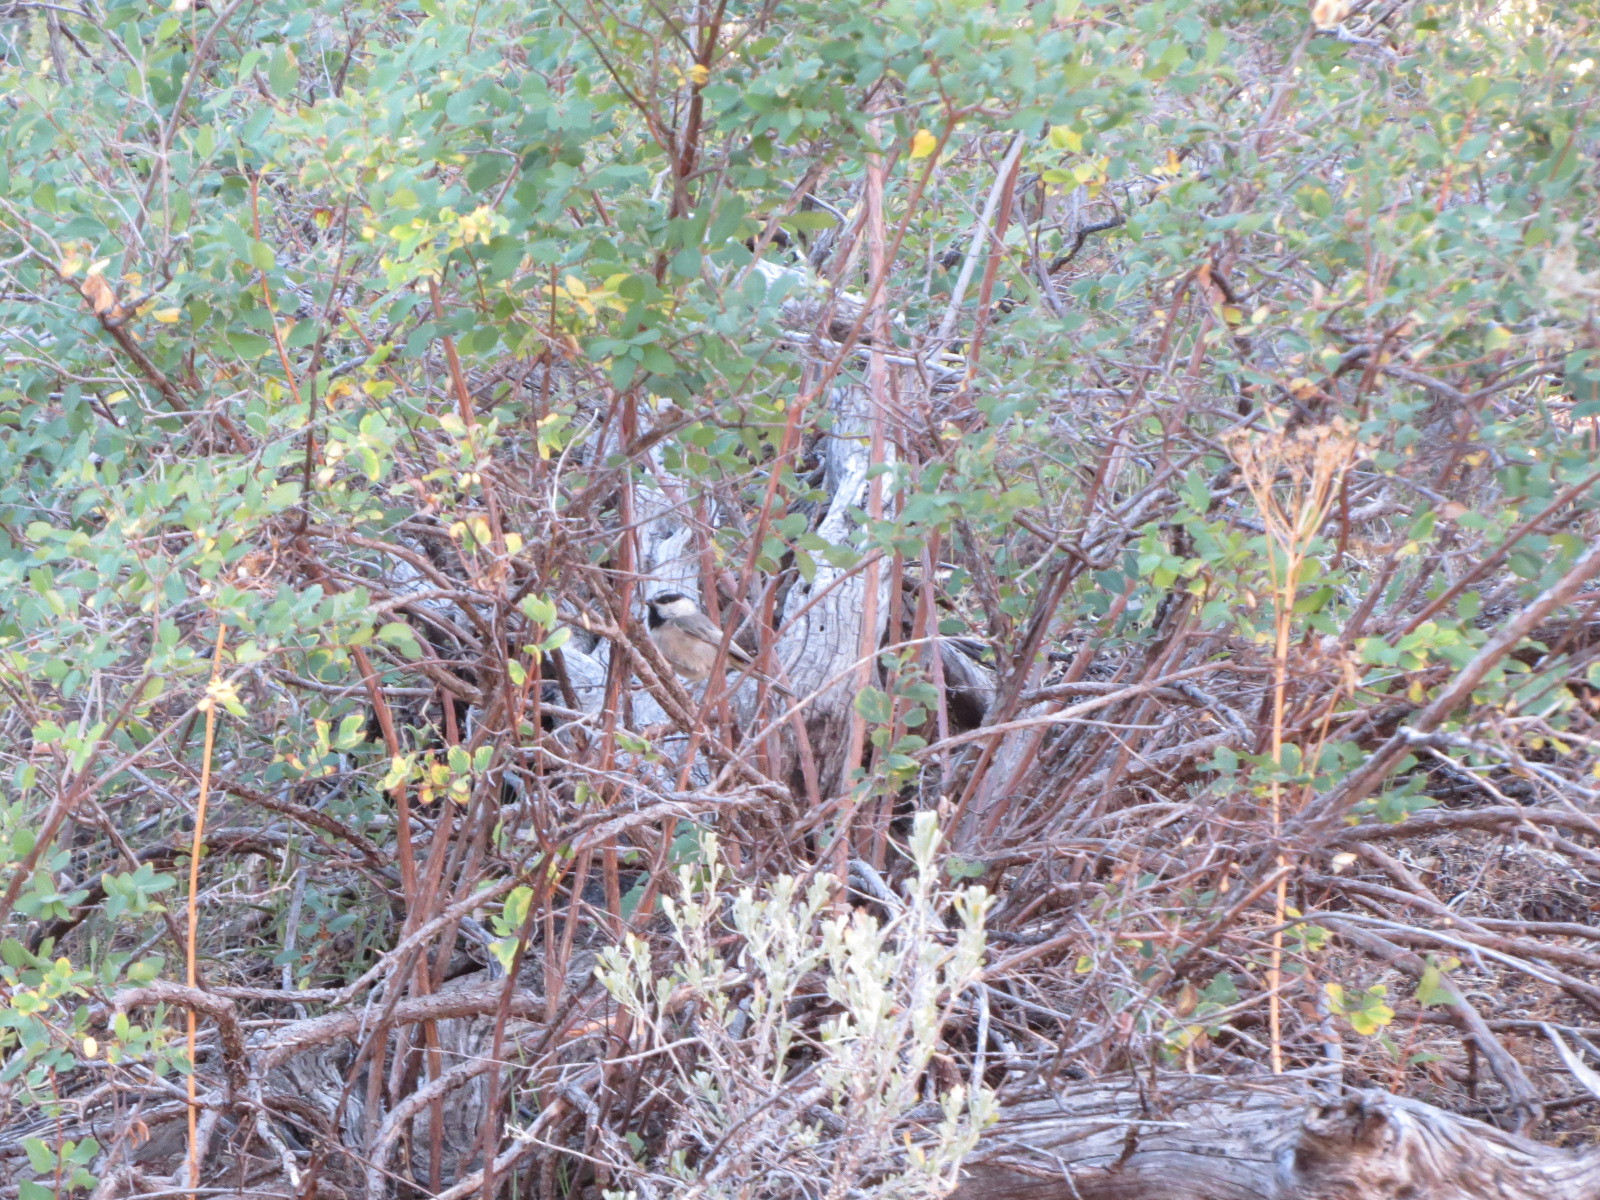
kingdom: Animalia
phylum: Chordata
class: Aves
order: Passeriformes
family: Paridae
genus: Poecile
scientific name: Poecile gambeli
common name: Mountain chickadee
